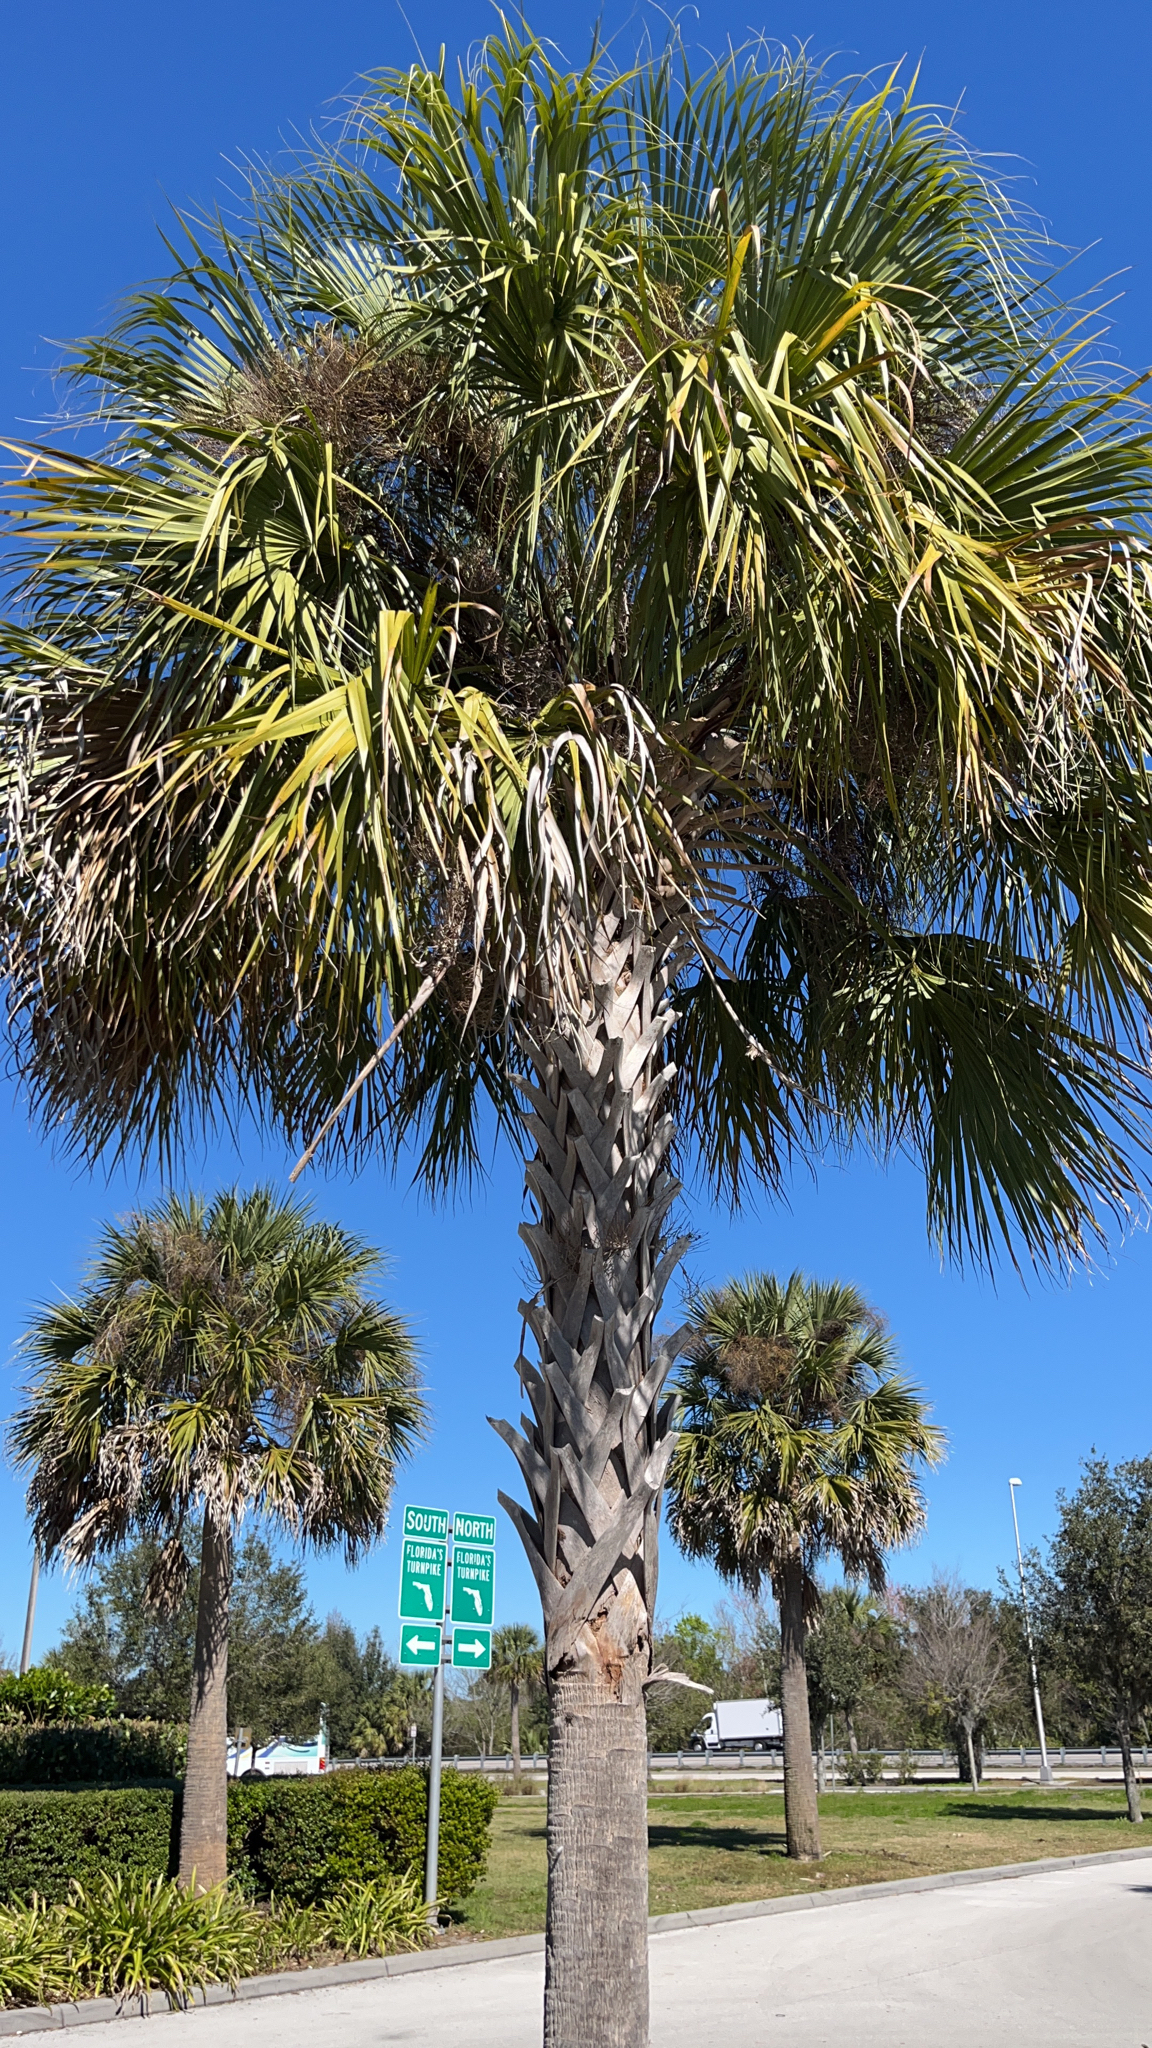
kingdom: Plantae
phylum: Tracheophyta
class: Liliopsida
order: Arecales
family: Arecaceae
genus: Sabal
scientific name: Sabal palmetto
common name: Blue palmetto
